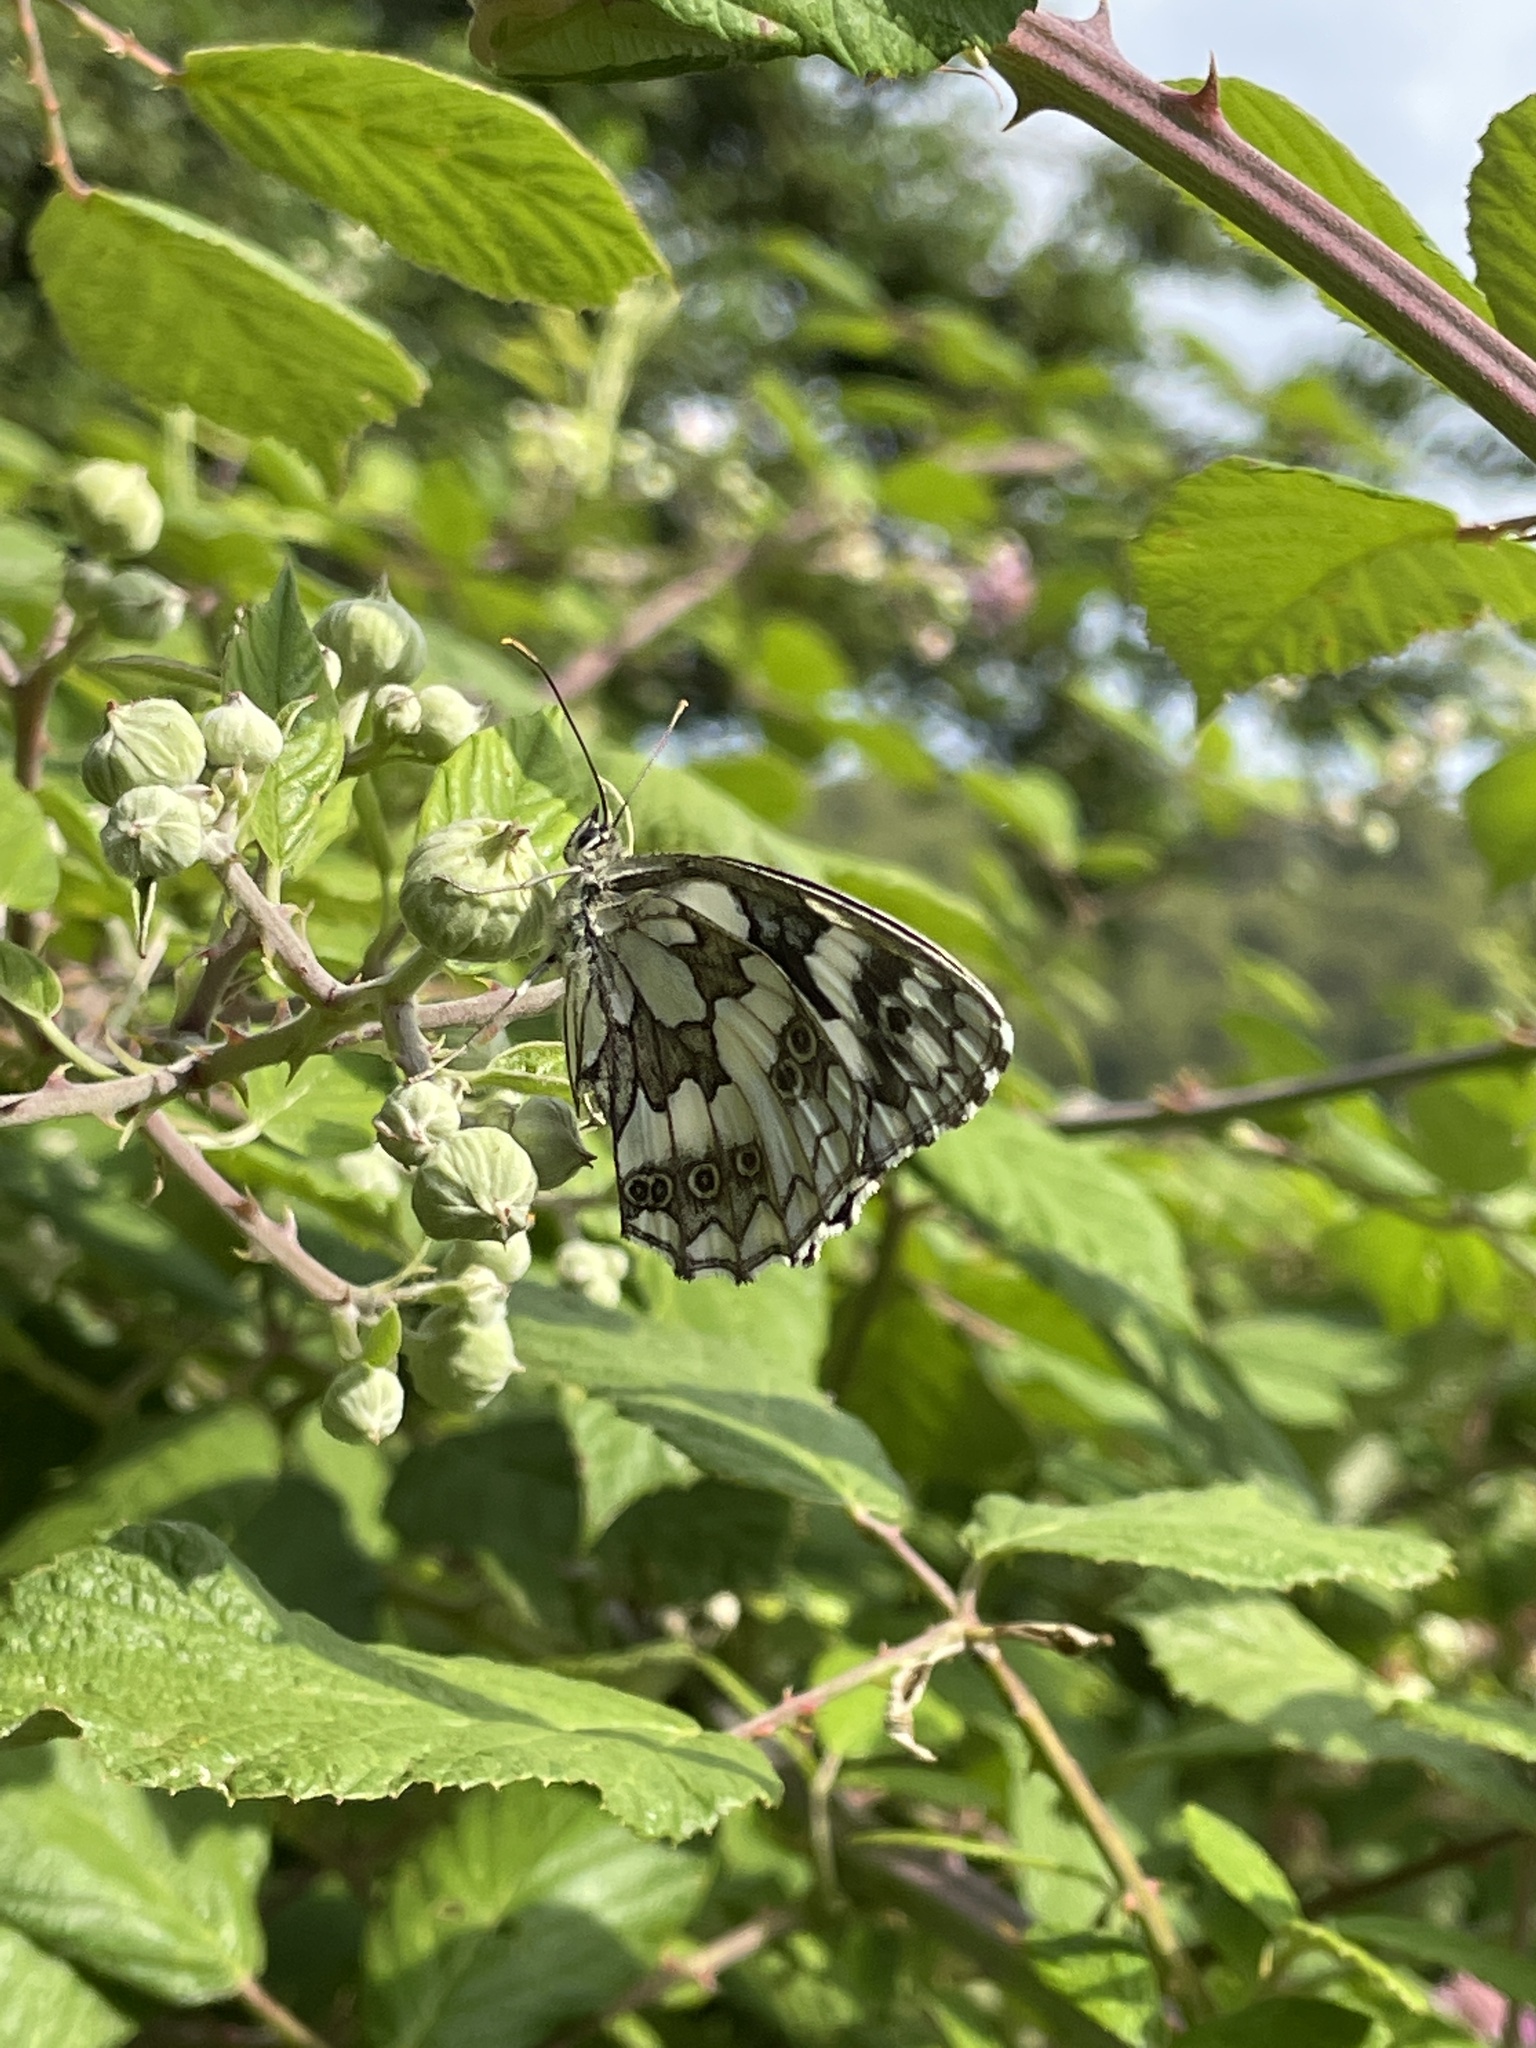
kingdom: Animalia
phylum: Arthropoda
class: Insecta
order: Lepidoptera
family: Nymphalidae
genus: Melanargia
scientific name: Melanargia galathea
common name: Marbled white
